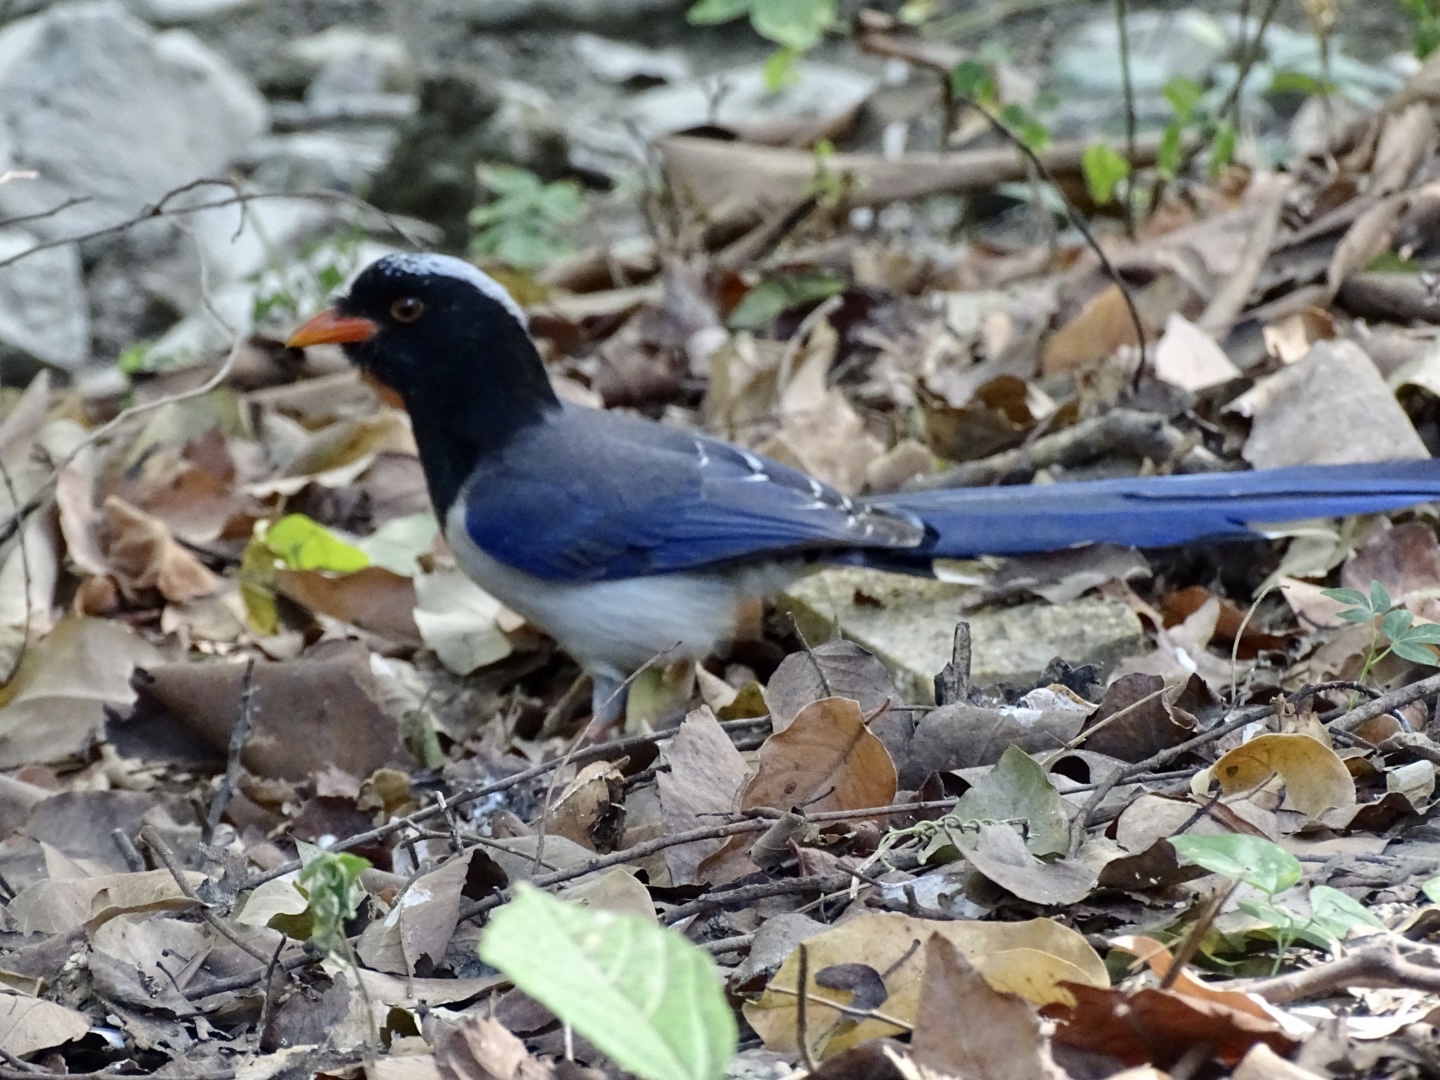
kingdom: Animalia
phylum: Chordata
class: Aves
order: Passeriformes
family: Corvidae
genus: Urocissa
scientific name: Urocissa erythroryncha
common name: Red-billed blue magpie
